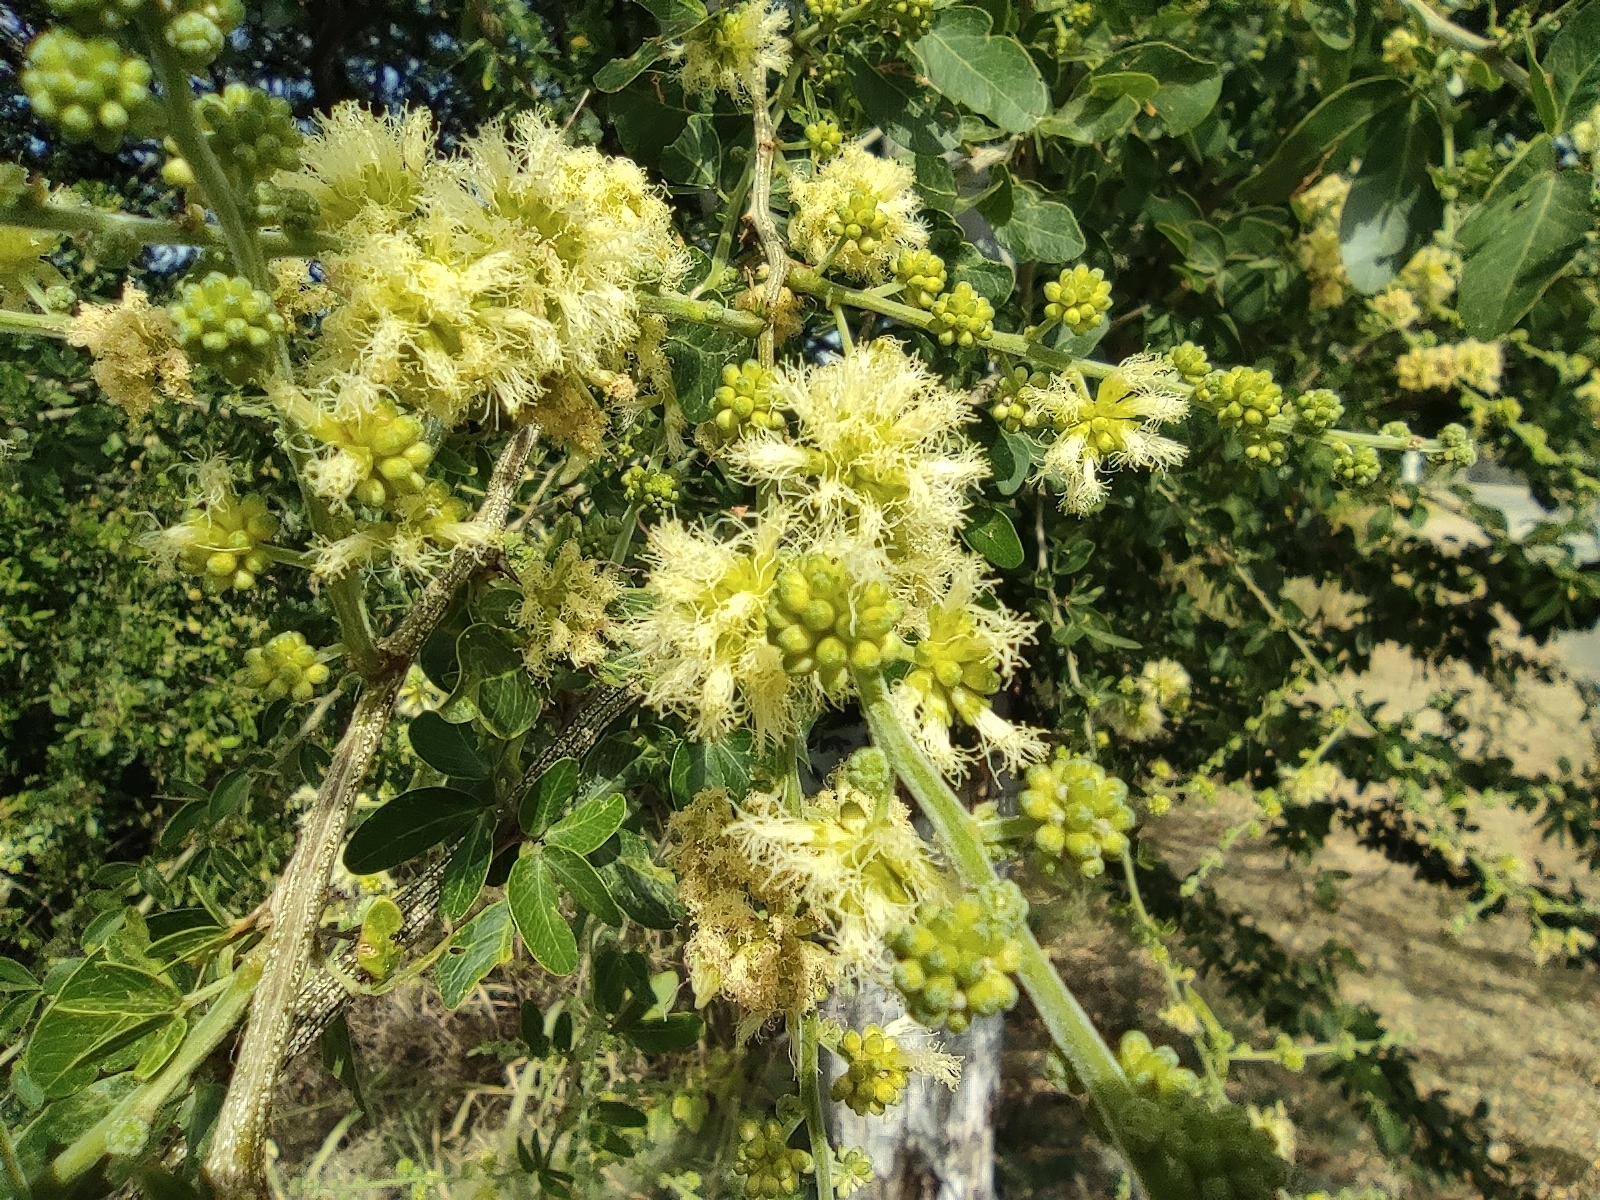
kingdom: Plantae
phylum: Tracheophyta
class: Magnoliopsida
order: Fabales
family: Fabaceae
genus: Pithecellobium
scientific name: Pithecellobium dulce
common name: Monkeypod
